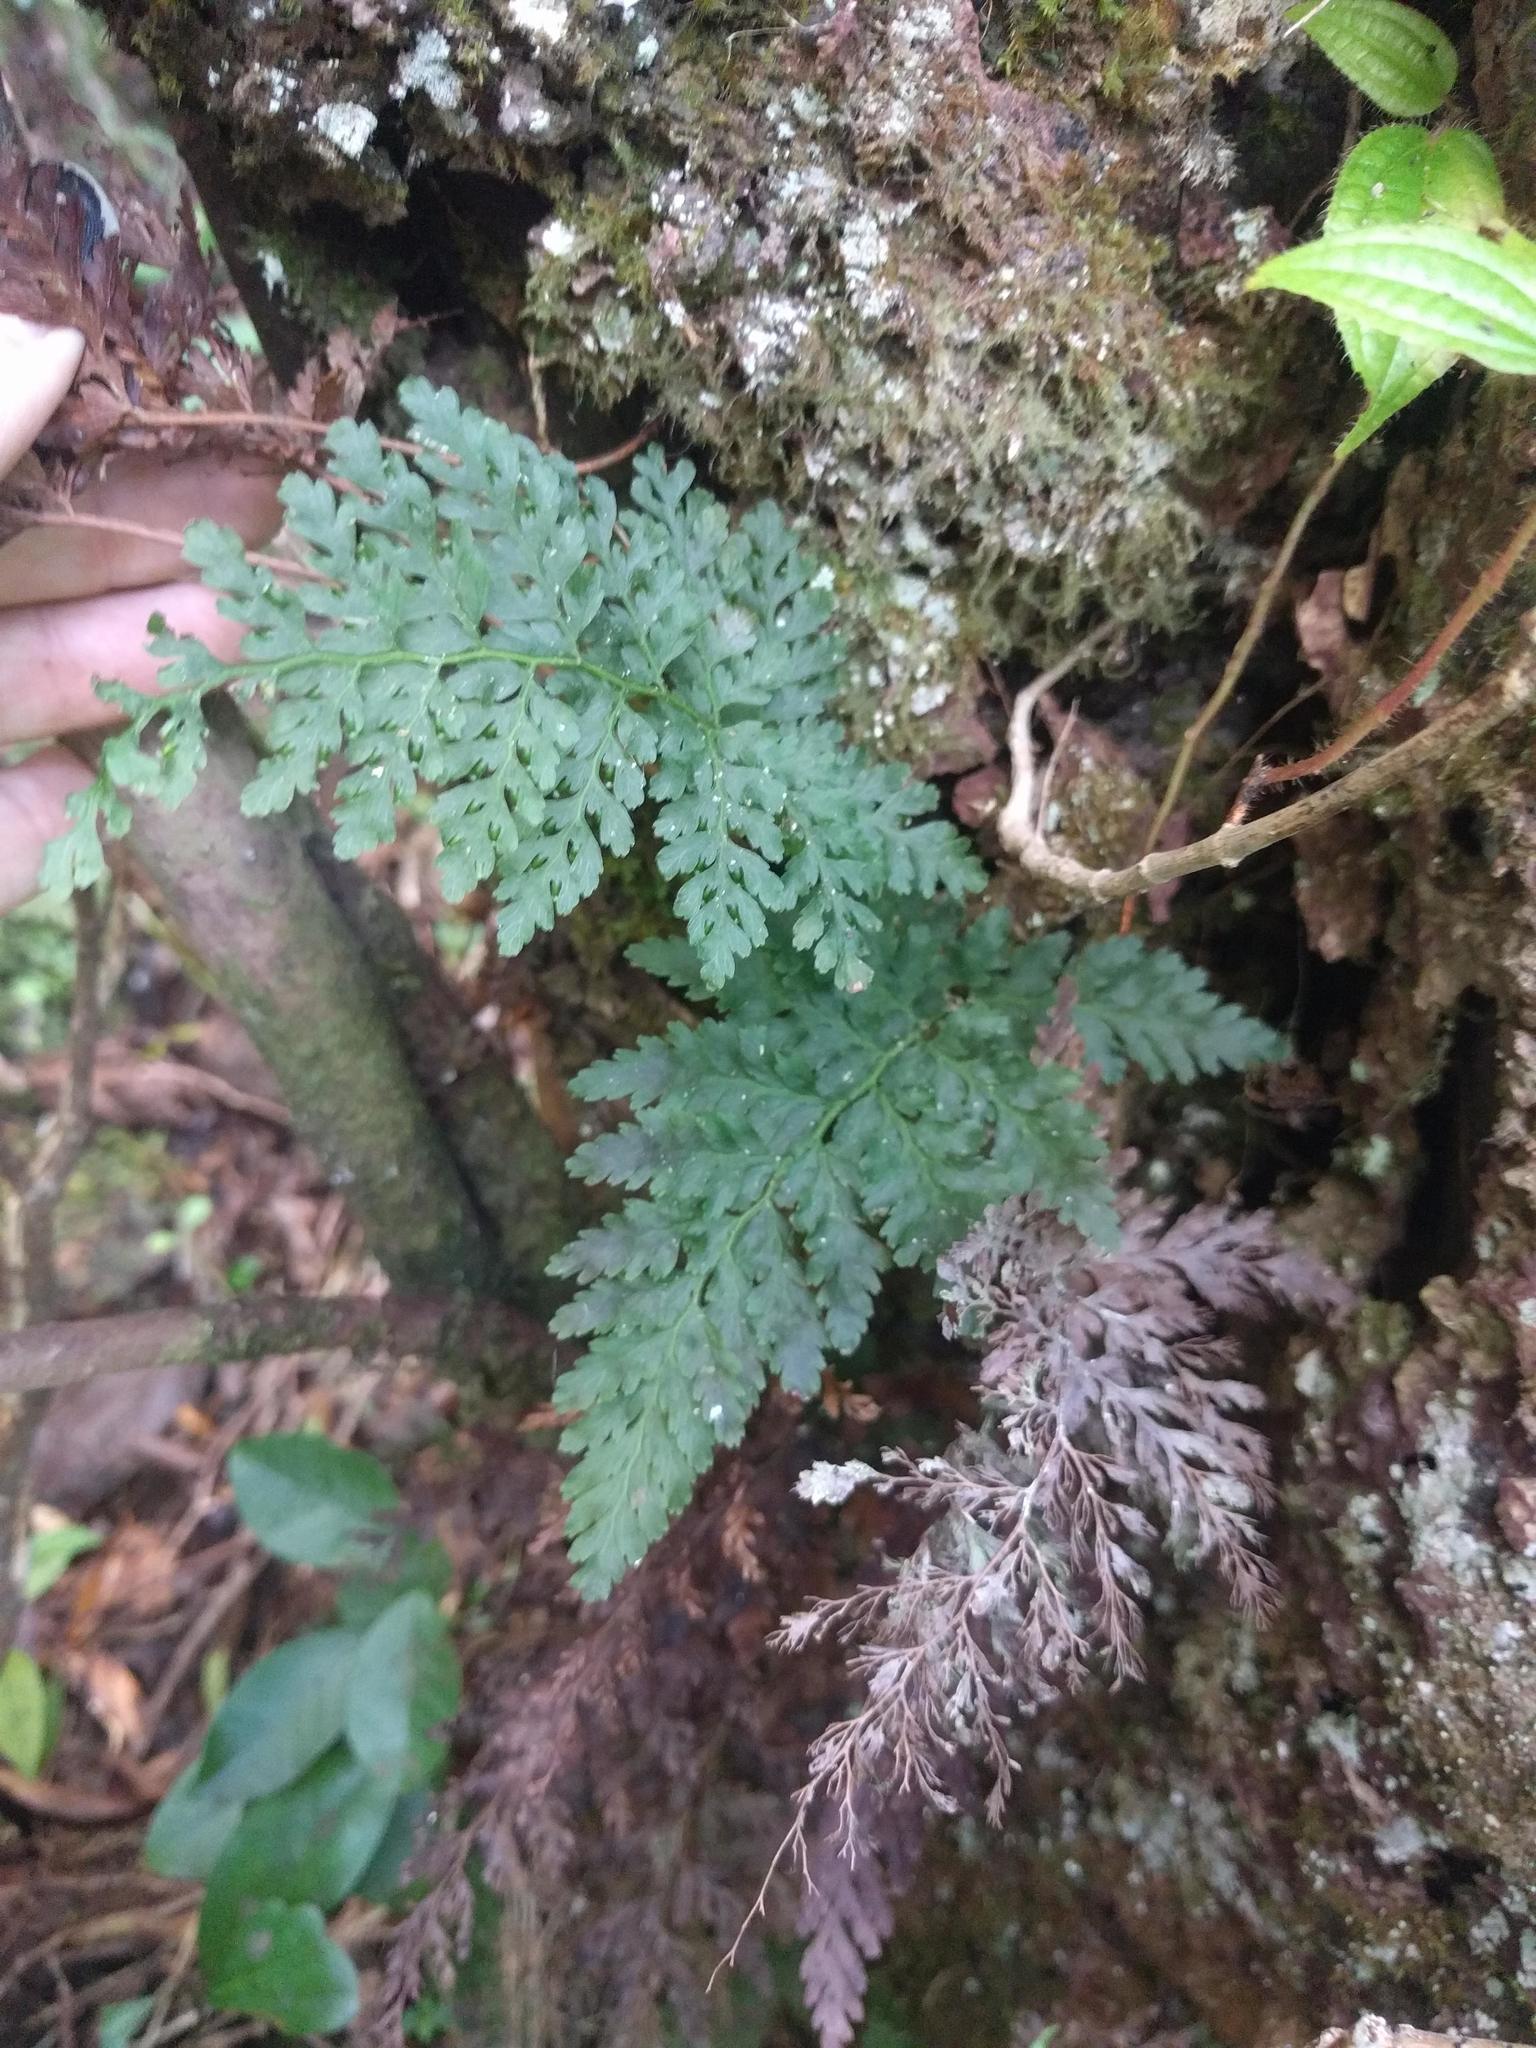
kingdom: Plantae
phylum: Tracheophyta
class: Polypodiopsida
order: Hymenophyllales
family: Hymenophyllaceae
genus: Vandenboschia
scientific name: Vandenboschia davallioides
